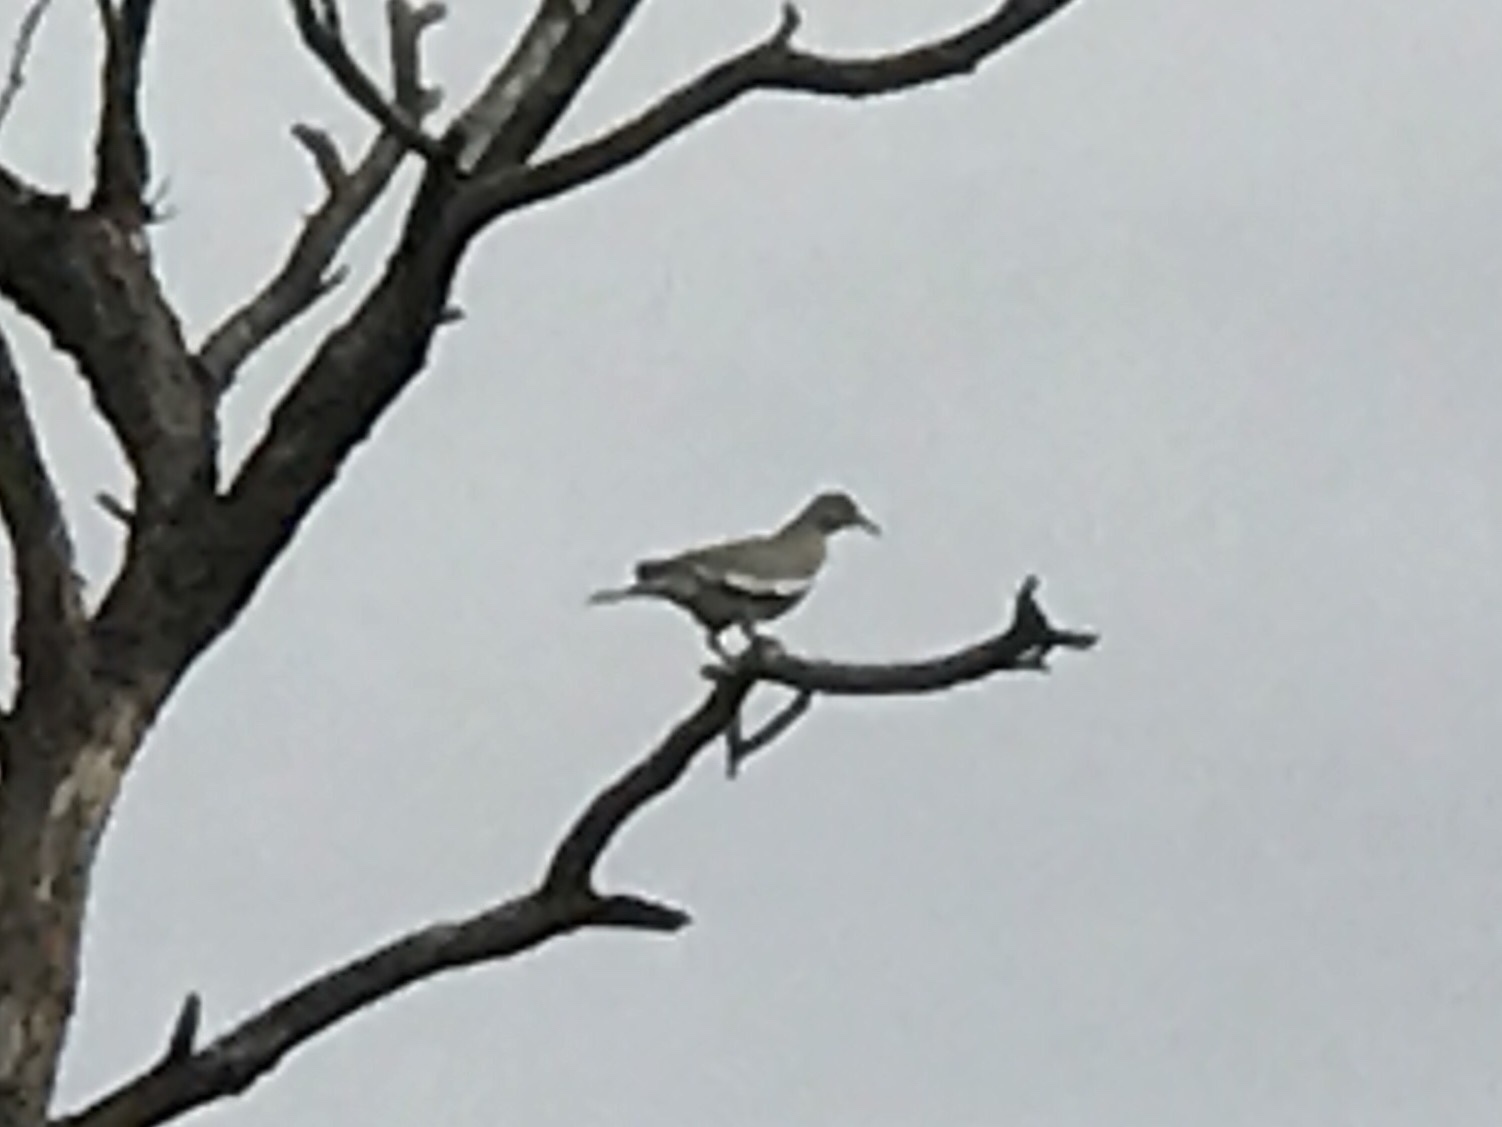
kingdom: Animalia
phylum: Chordata
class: Aves
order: Columbiformes
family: Columbidae
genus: Zenaida
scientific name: Zenaida asiatica
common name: White-winged dove
